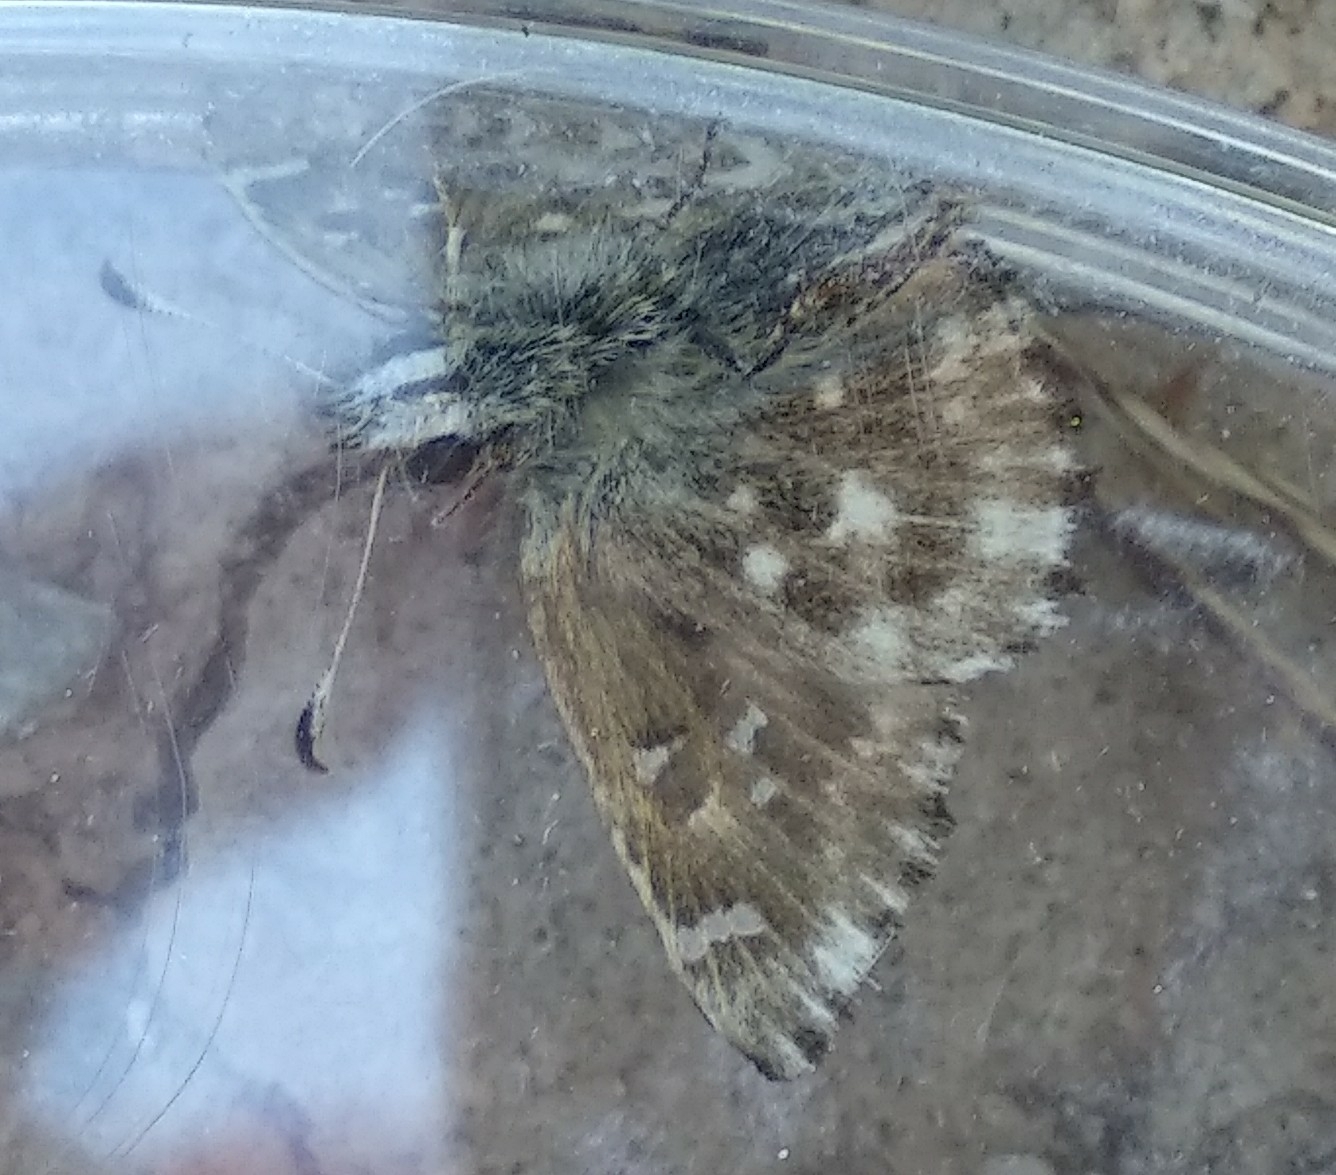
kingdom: Animalia
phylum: Arthropoda
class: Insecta
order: Lepidoptera
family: Hesperiidae
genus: Carcharodus
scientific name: Carcharodus alceae
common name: Mallow skipper
